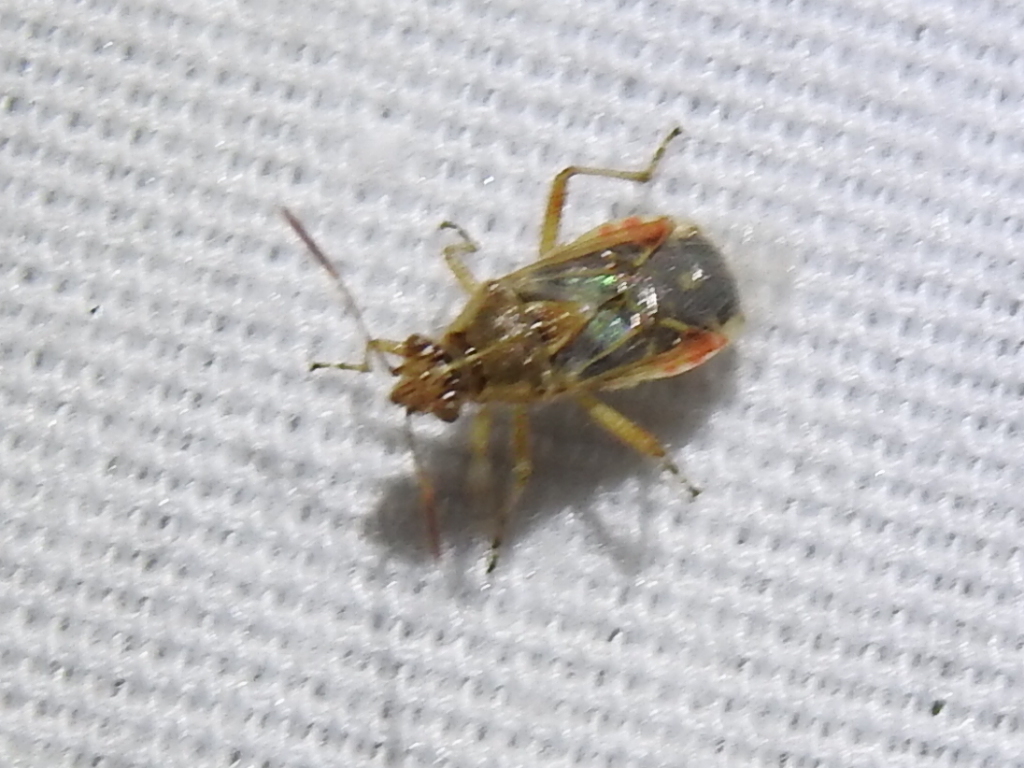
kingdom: Animalia
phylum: Arthropoda
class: Insecta
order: Hemiptera
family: Rhopalidae
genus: Liorhyssus
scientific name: Liorhyssus hyalinus
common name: Scentless plant bug
